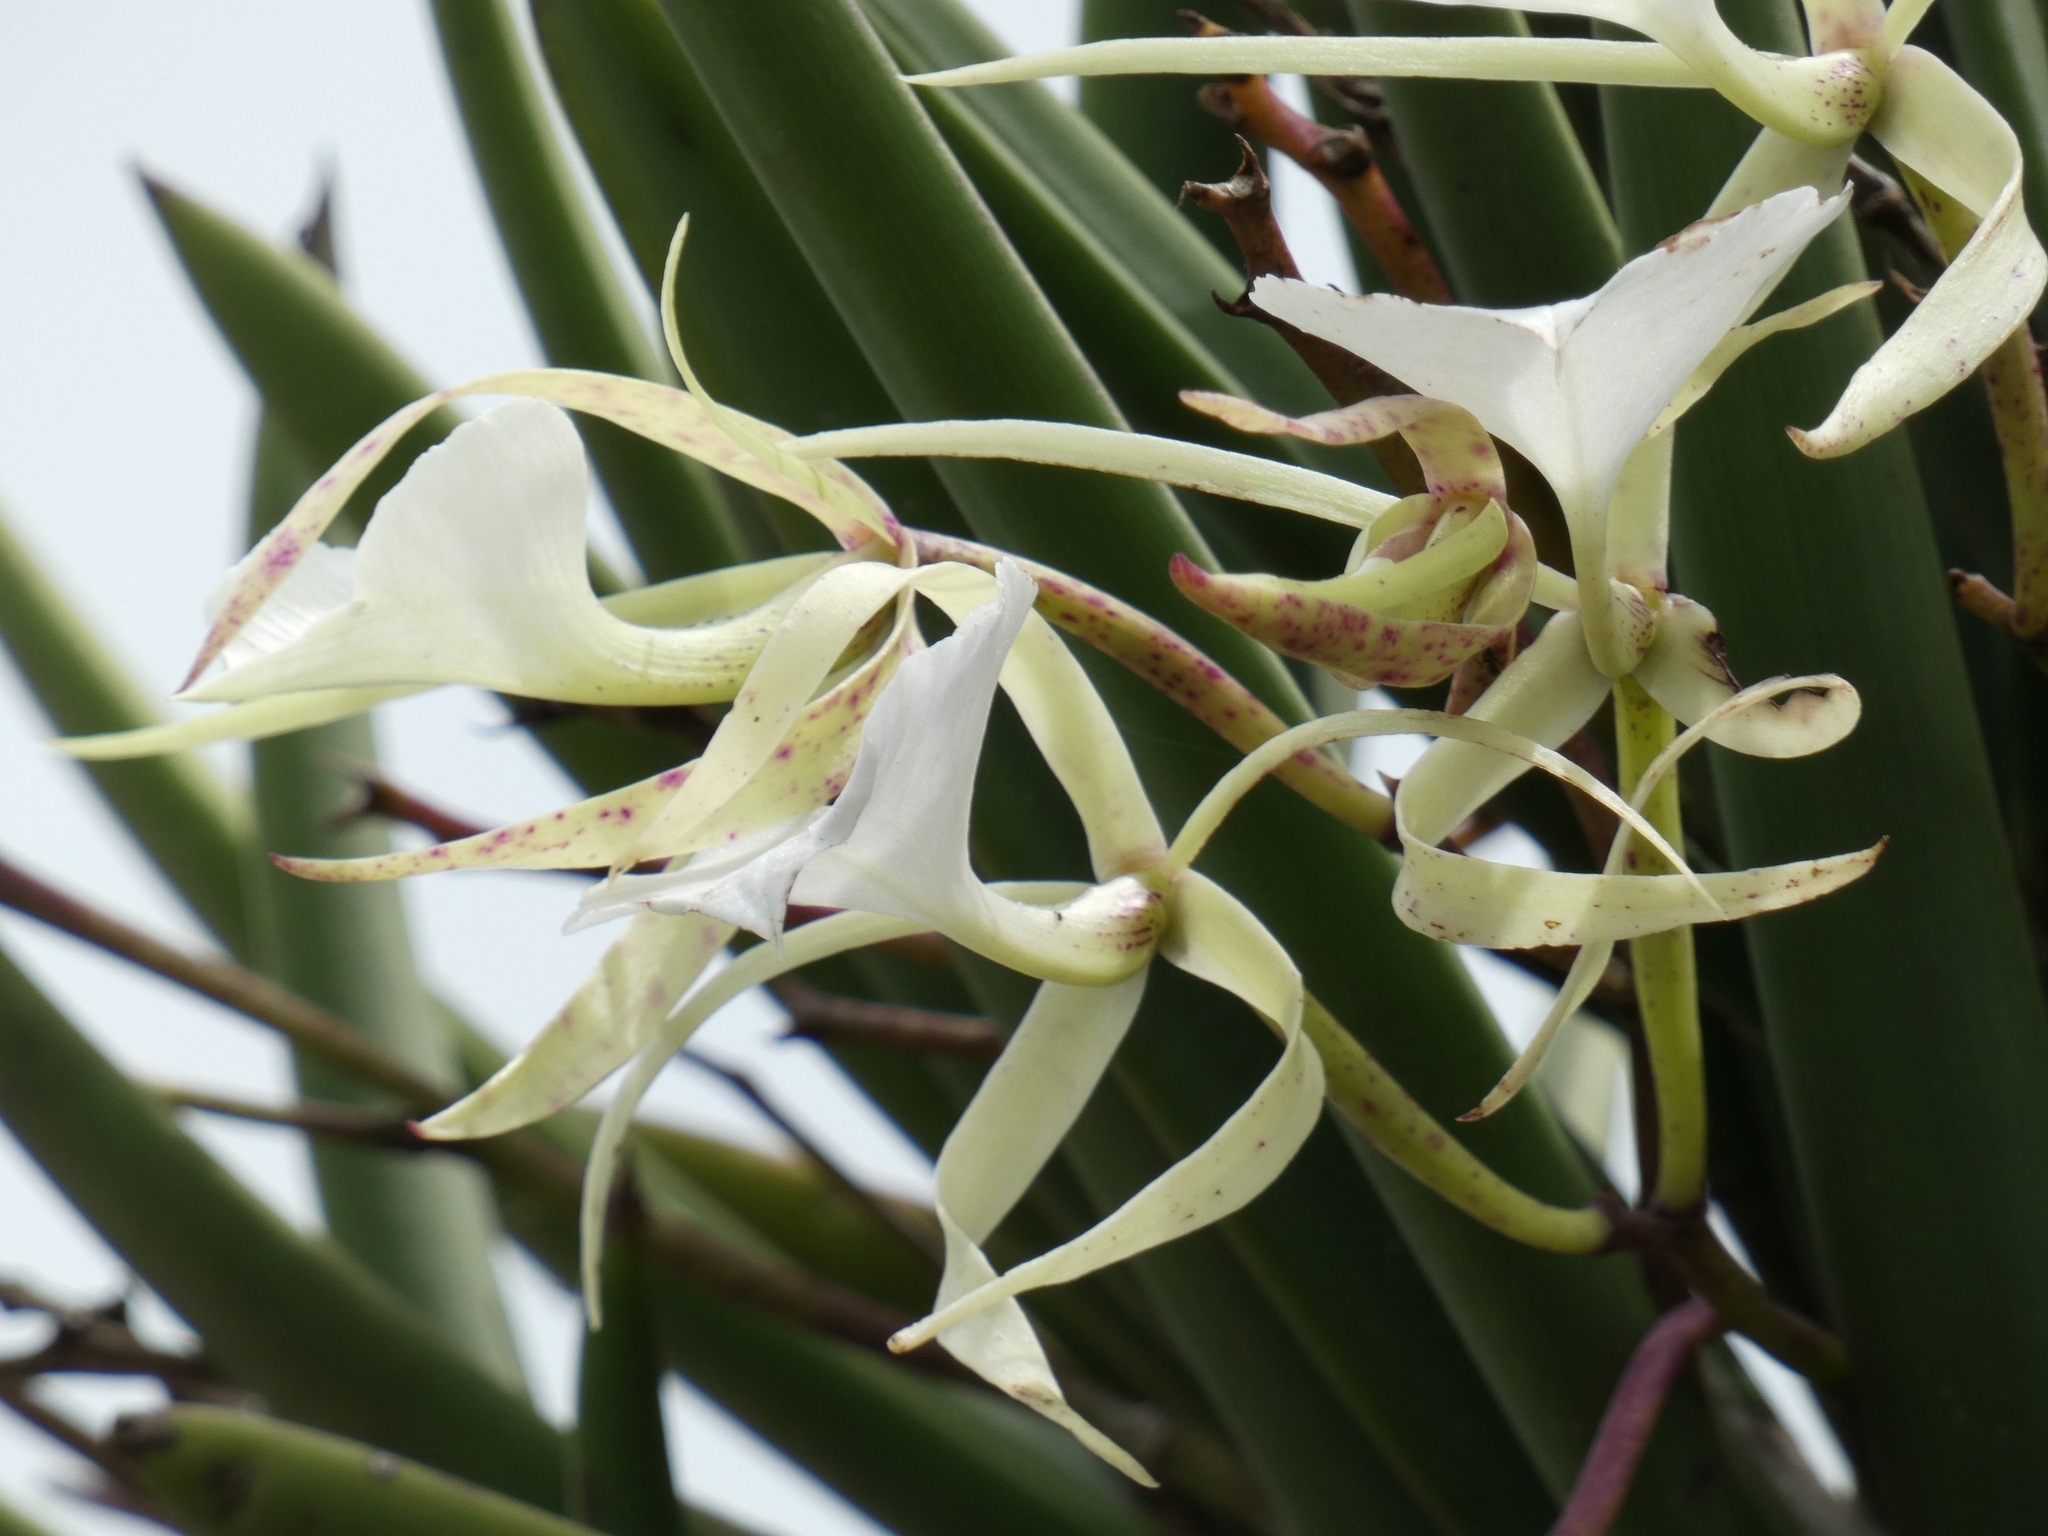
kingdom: Plantae
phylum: Tracheophyta
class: Liliopsida
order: Asparagales
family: Orchidaceae
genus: Brassavola
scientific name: Brassavola nodosa
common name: Lady of the night
